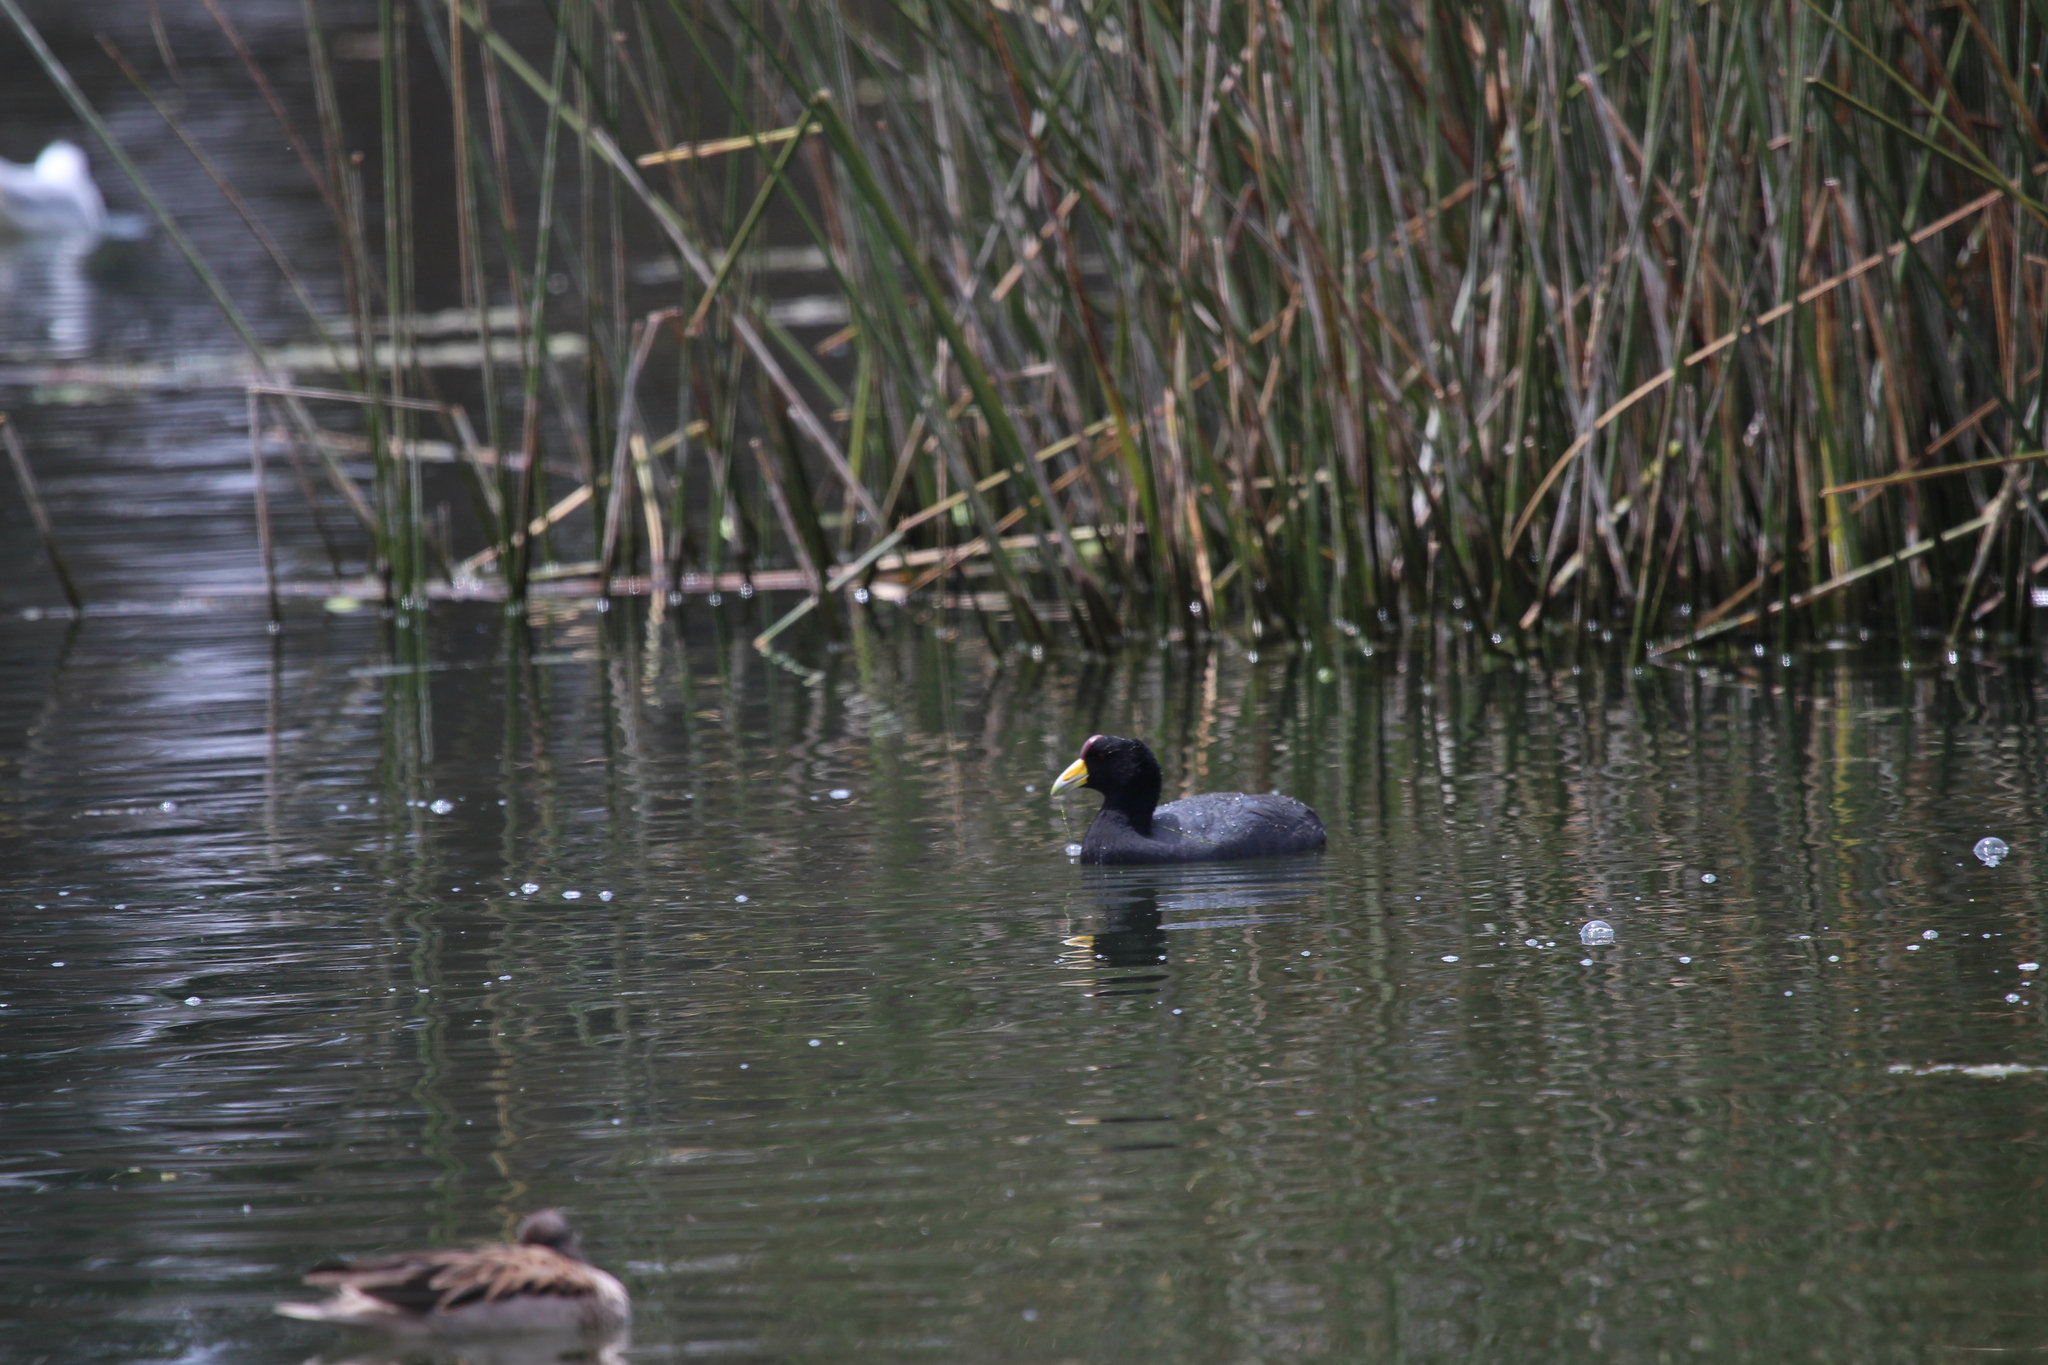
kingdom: Animalia
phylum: Chordata
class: Aves
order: Gruiformes
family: Rallidae
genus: Fulica
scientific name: Fulica ardesiaca
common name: Andean coot
